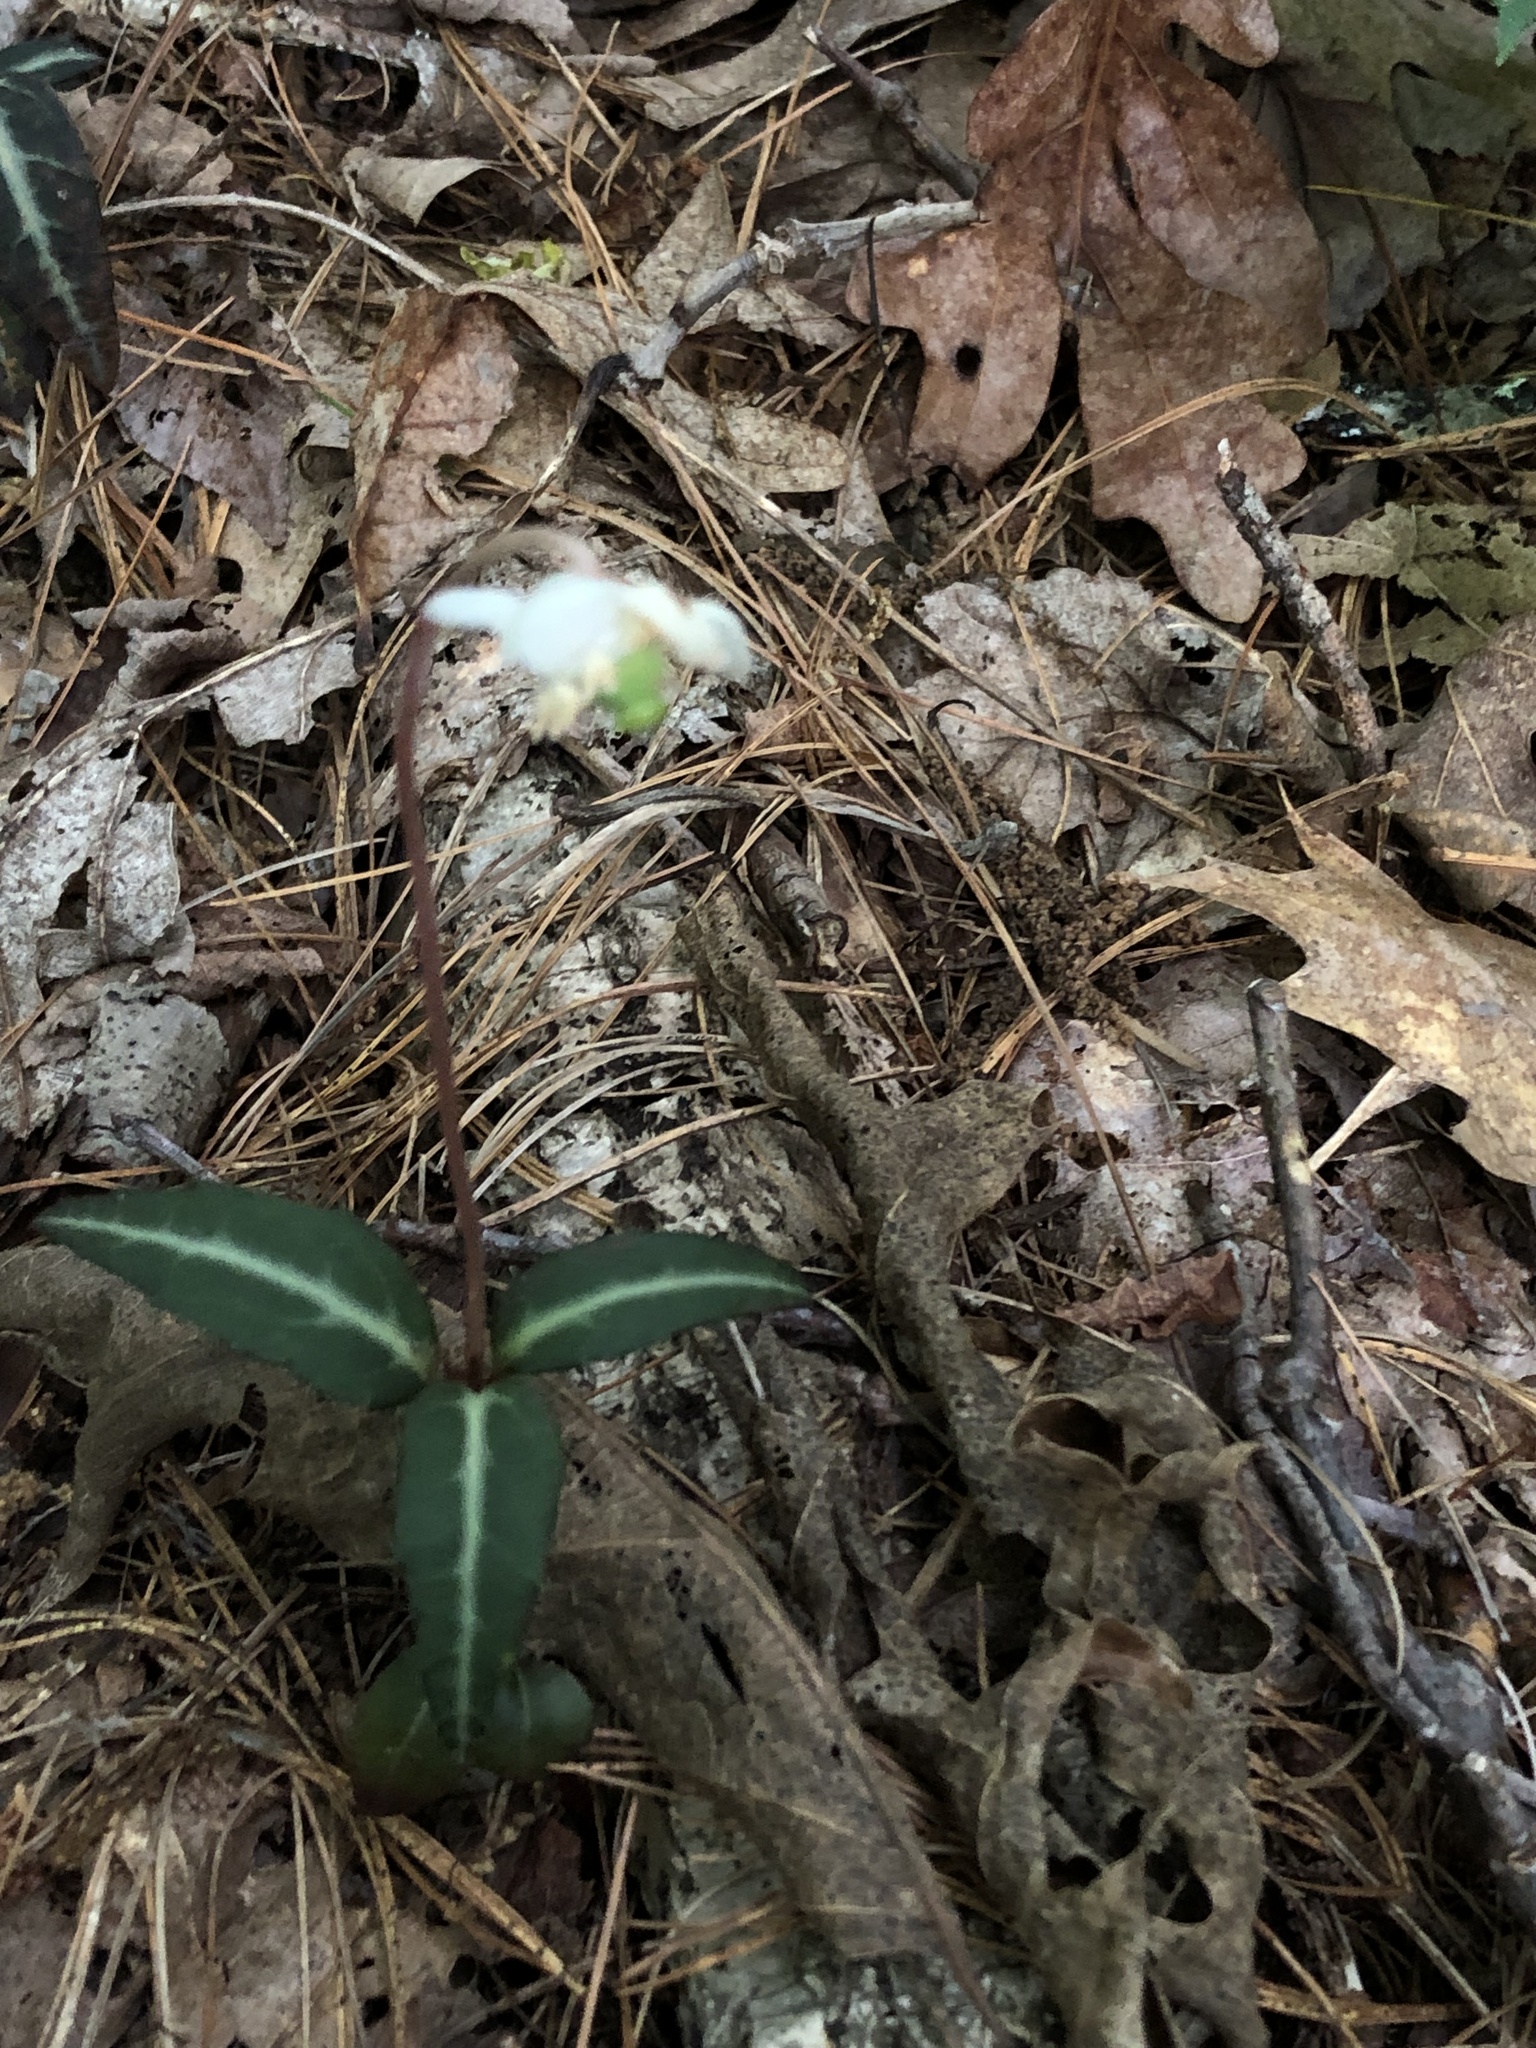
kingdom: Plantae
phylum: Tracheophyta
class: Magnoliopsida
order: Ericales
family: Ericaceae
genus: Chimaphila
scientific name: Chimaphila maculata
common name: Spotted pipsissewa
